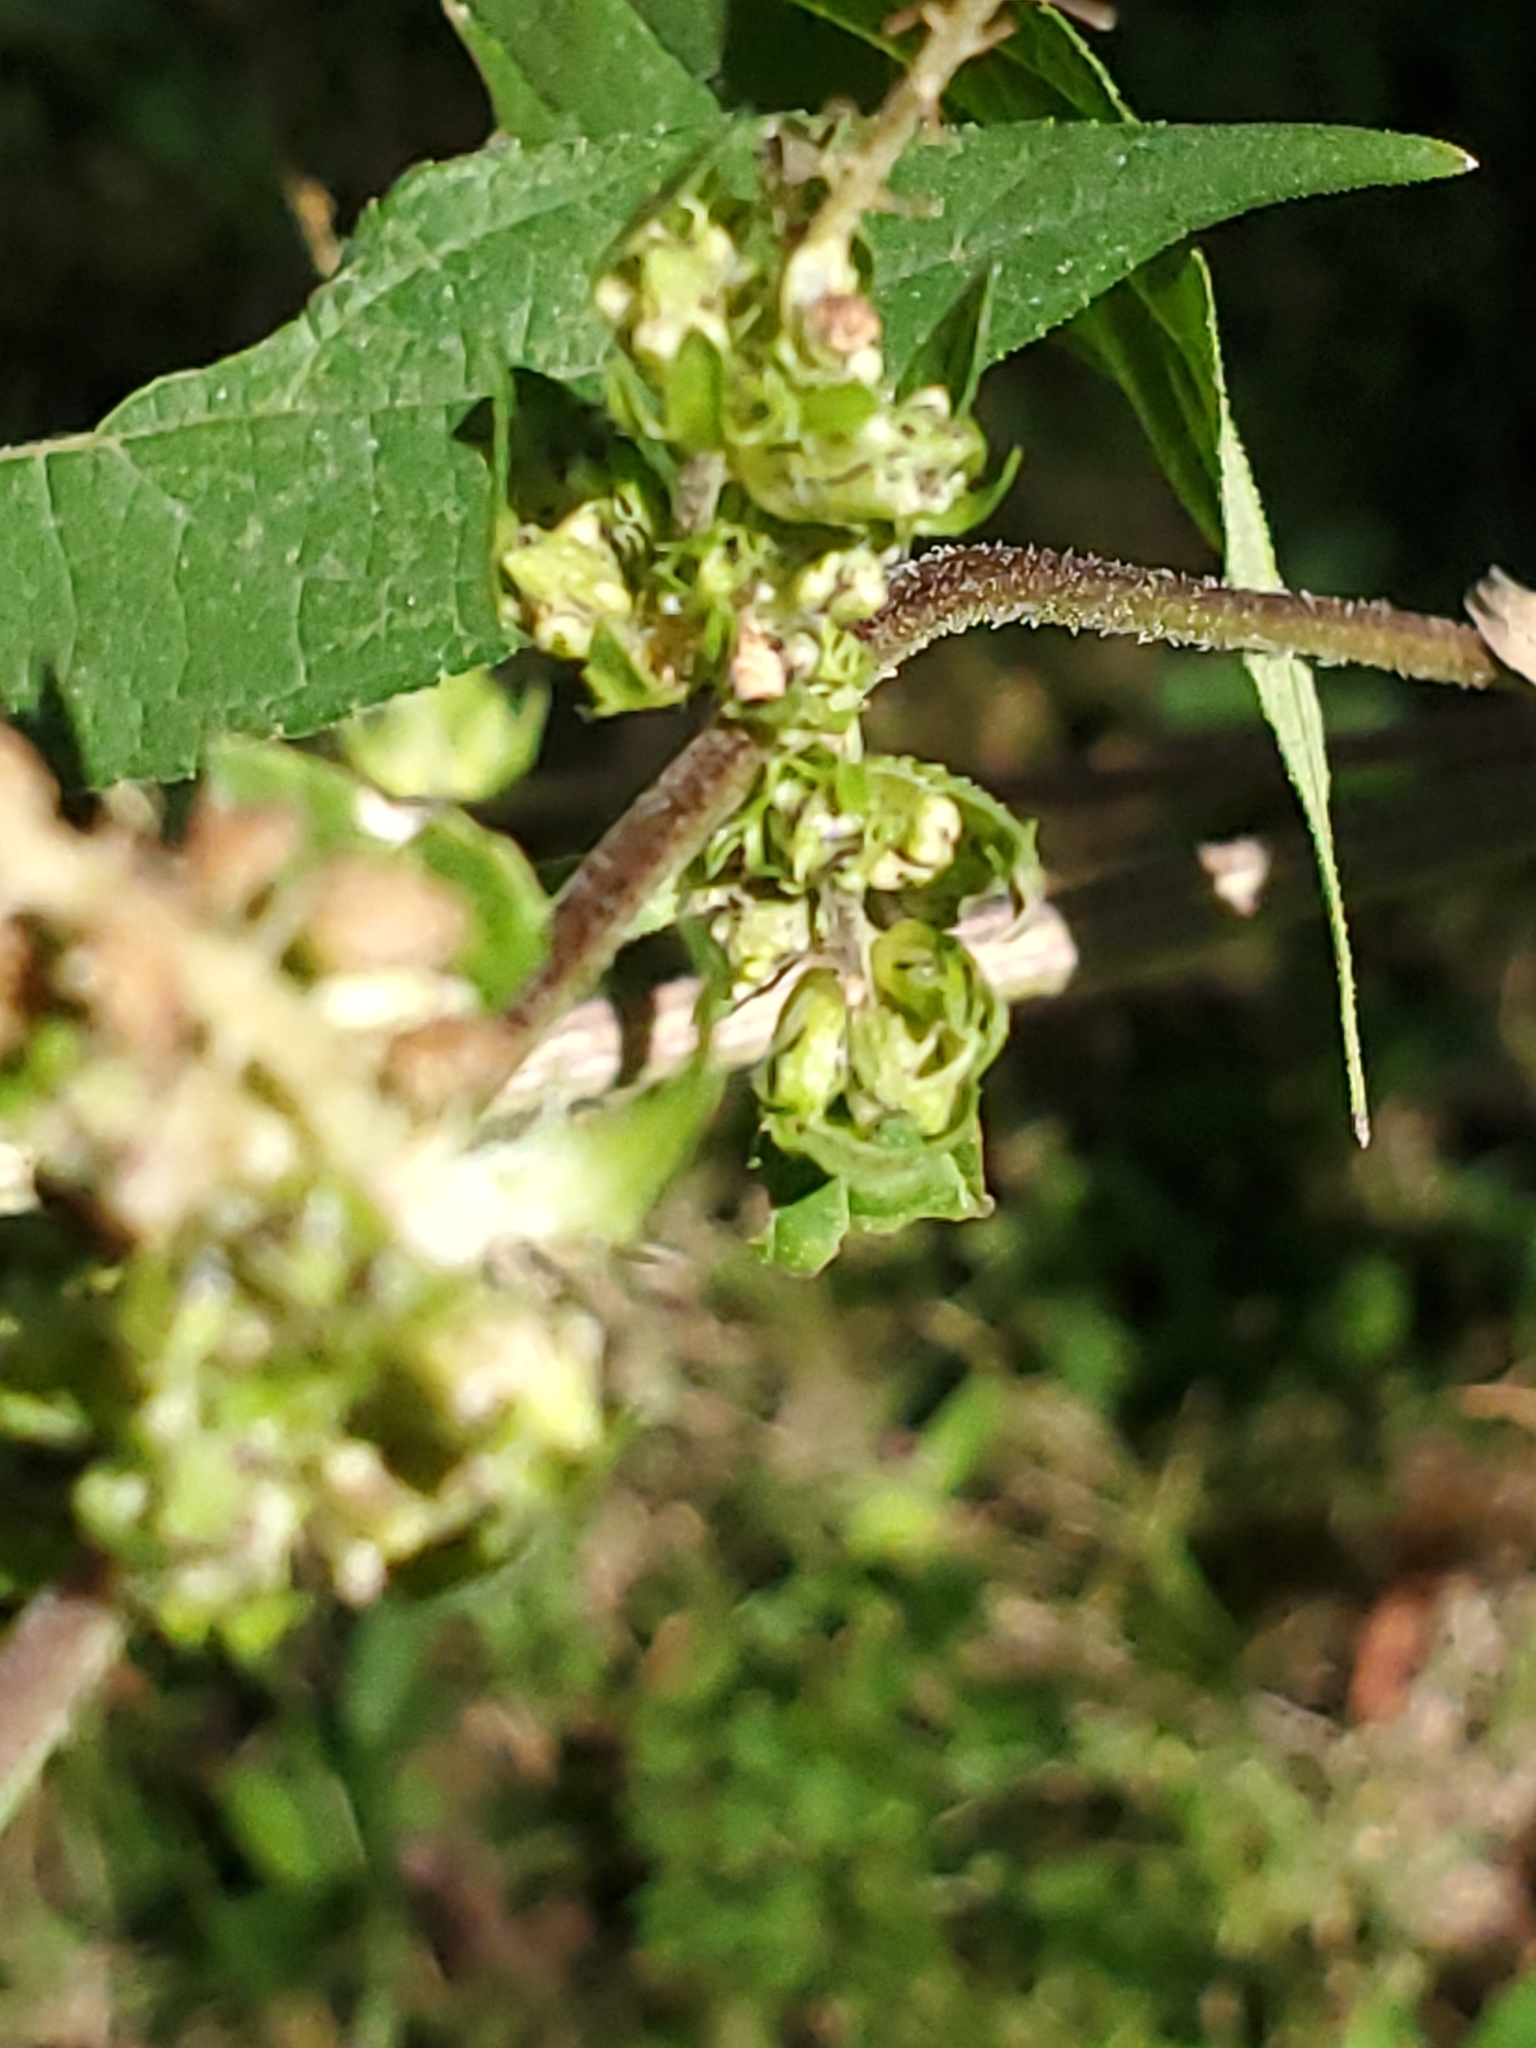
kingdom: Plantae
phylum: Tracheophyta
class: Magnoliopsida
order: Asterales
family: Asteraceae
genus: Ambrosia
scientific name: Ambrosia trifida
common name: Giant ragweed
